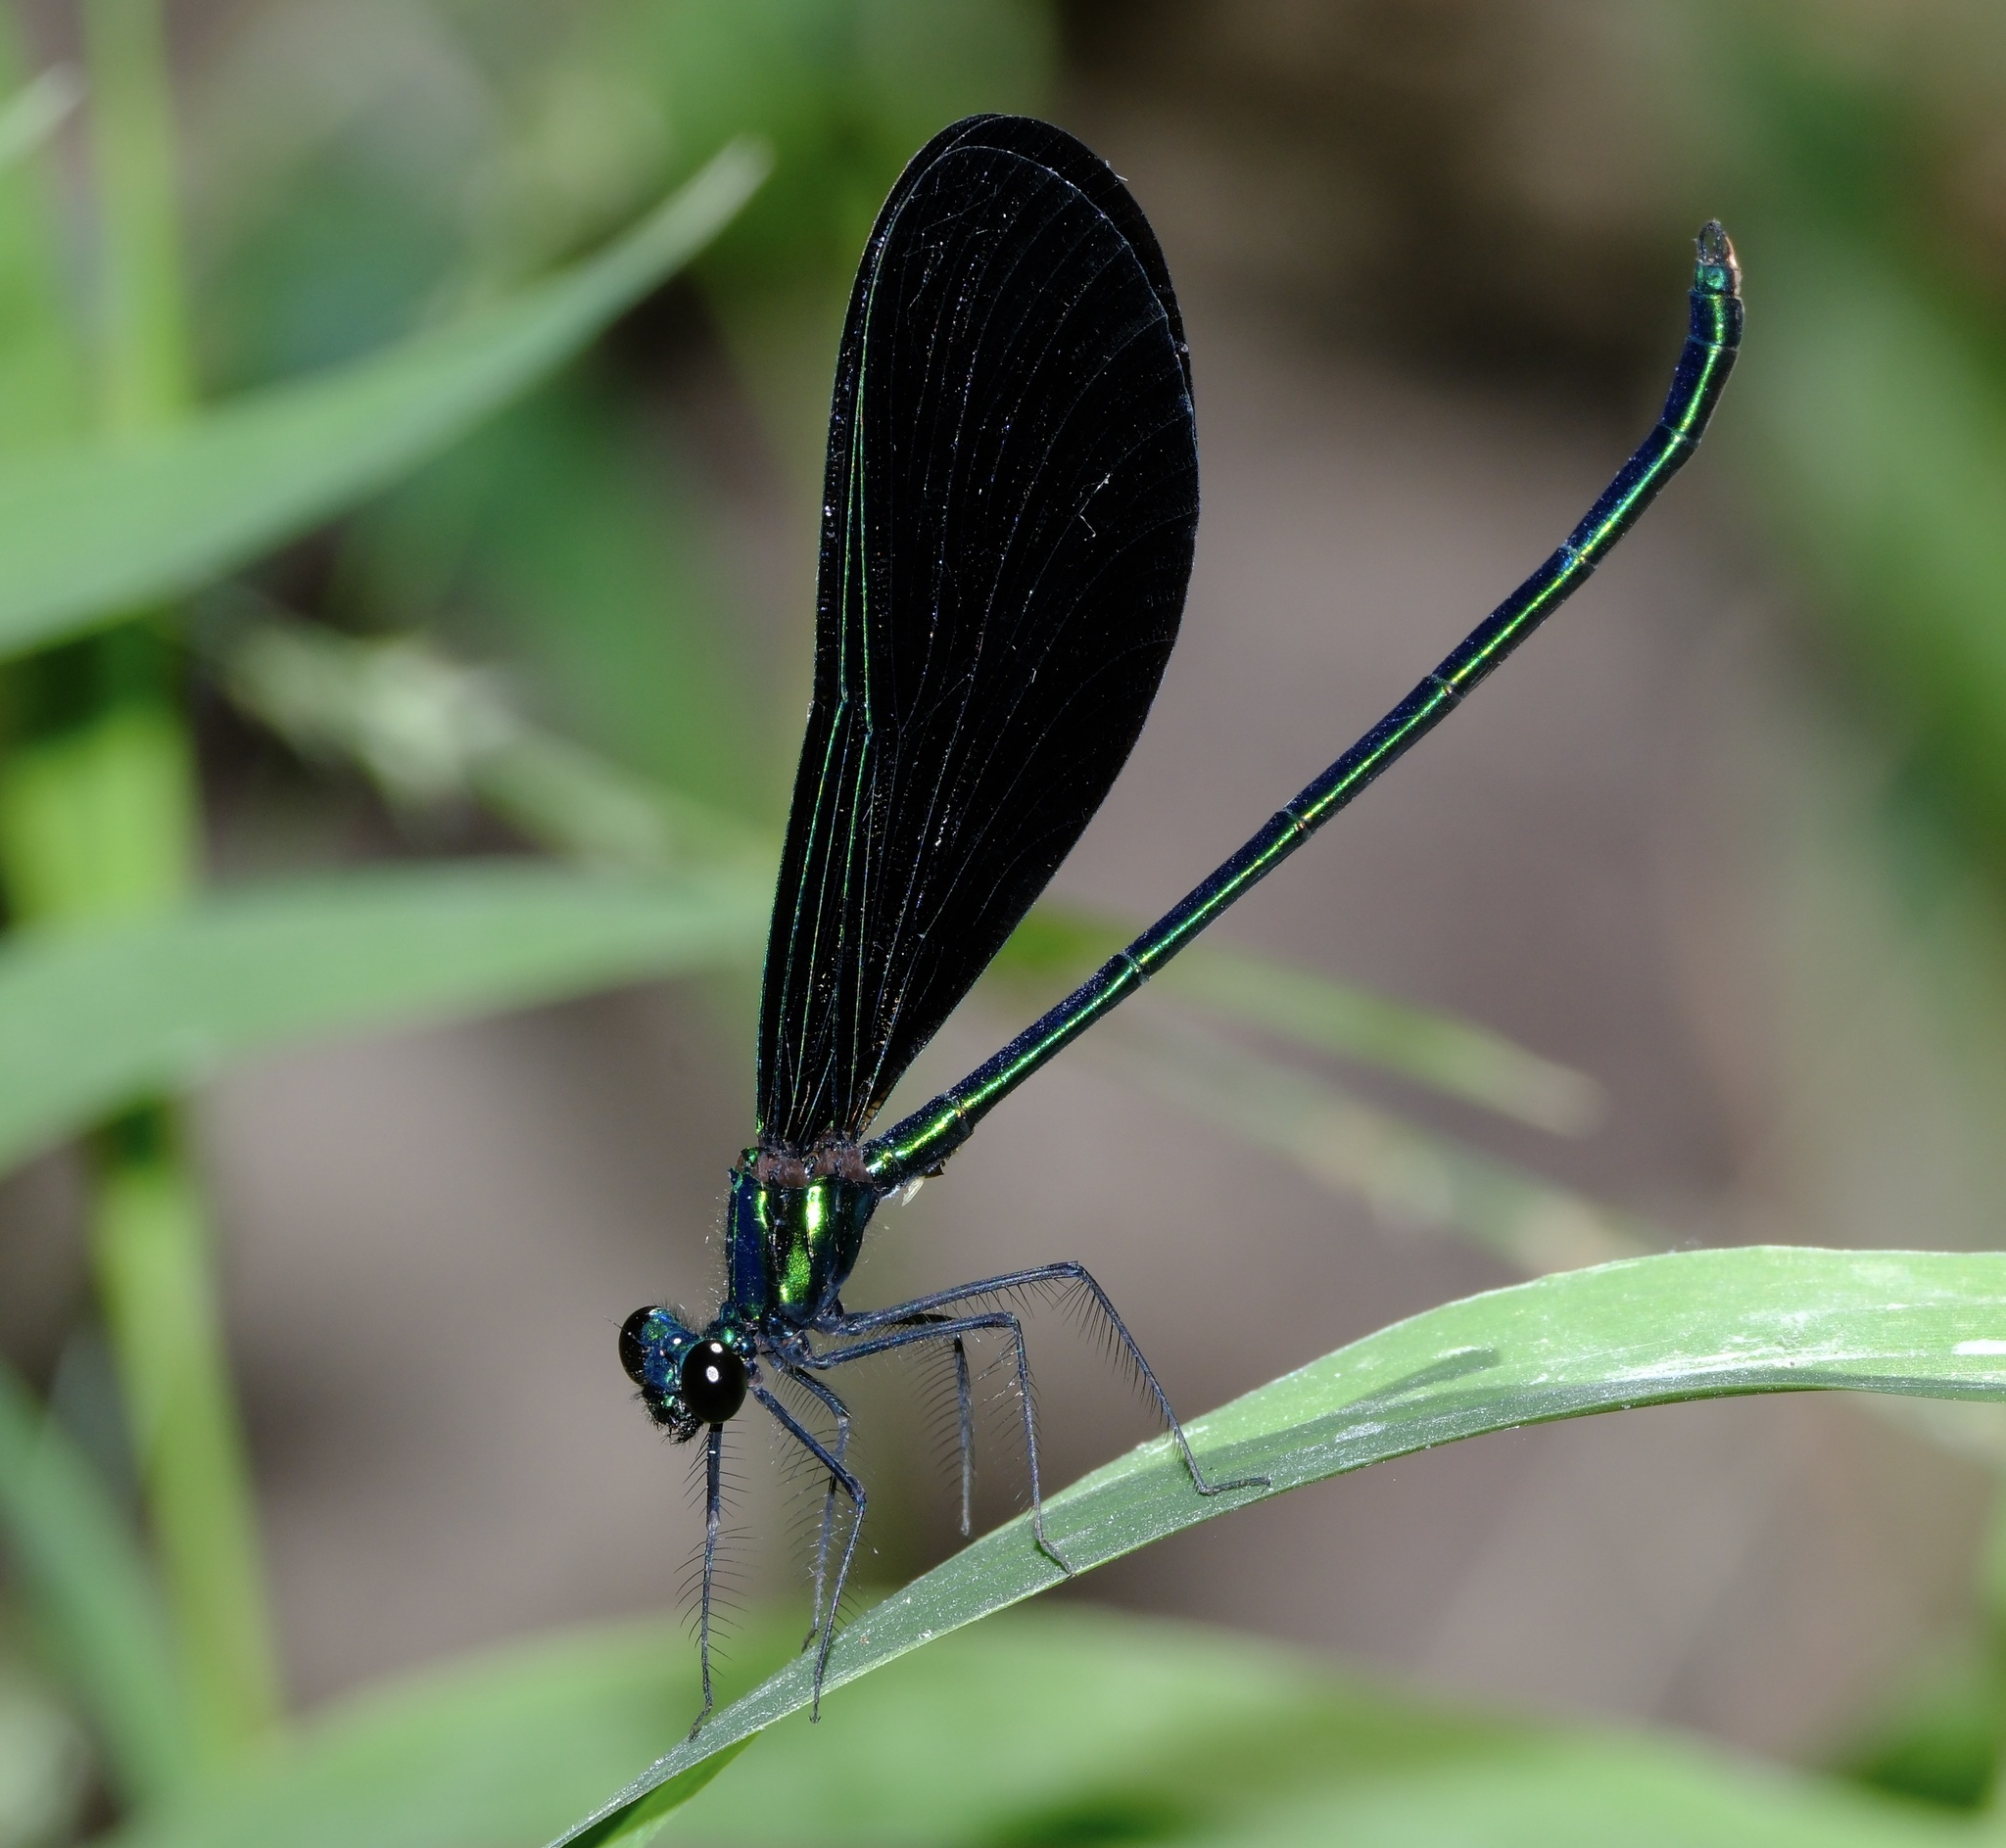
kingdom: Animalia
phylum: Arthropoda
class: Insecta
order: Odonata
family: Calopterygidae
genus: Calopteryx
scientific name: Calopteryx maculata
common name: Ebony jewelwing
